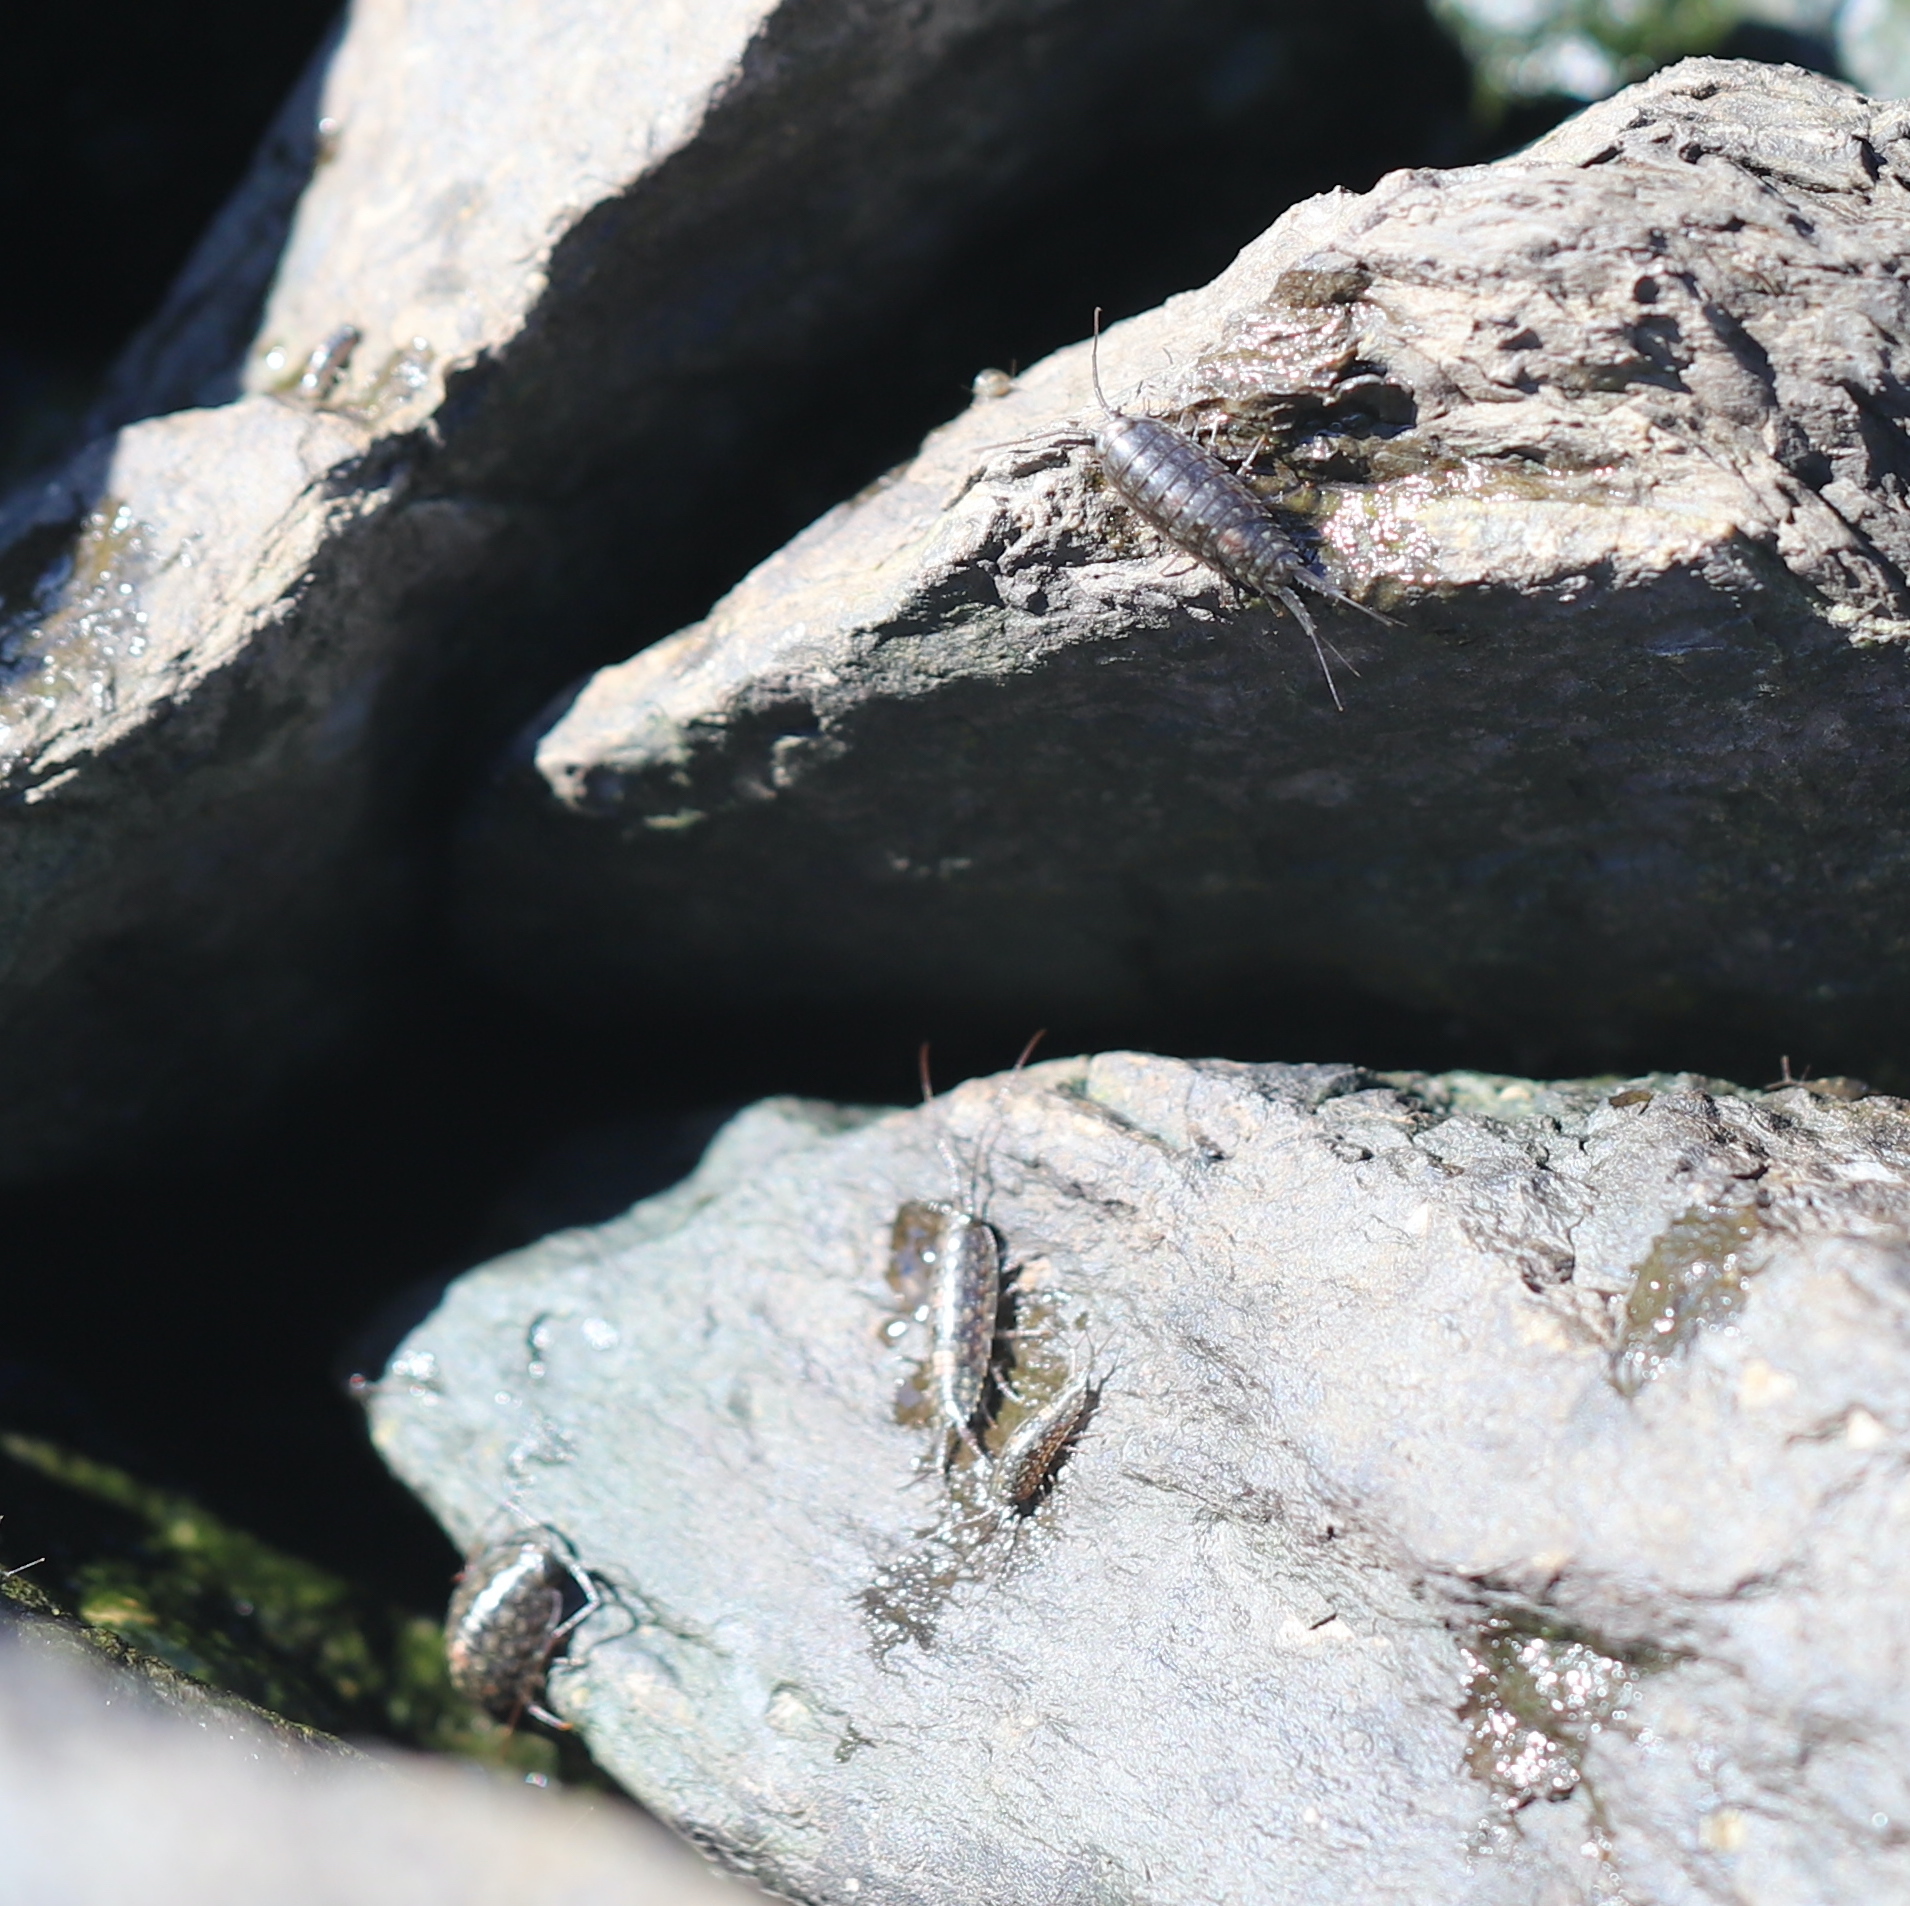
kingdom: Animalia
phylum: Arthropoda
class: Malacostraca
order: Isopoda
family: Ligiidae
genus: Ligia
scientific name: Ligia exotica
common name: Wharf roach
